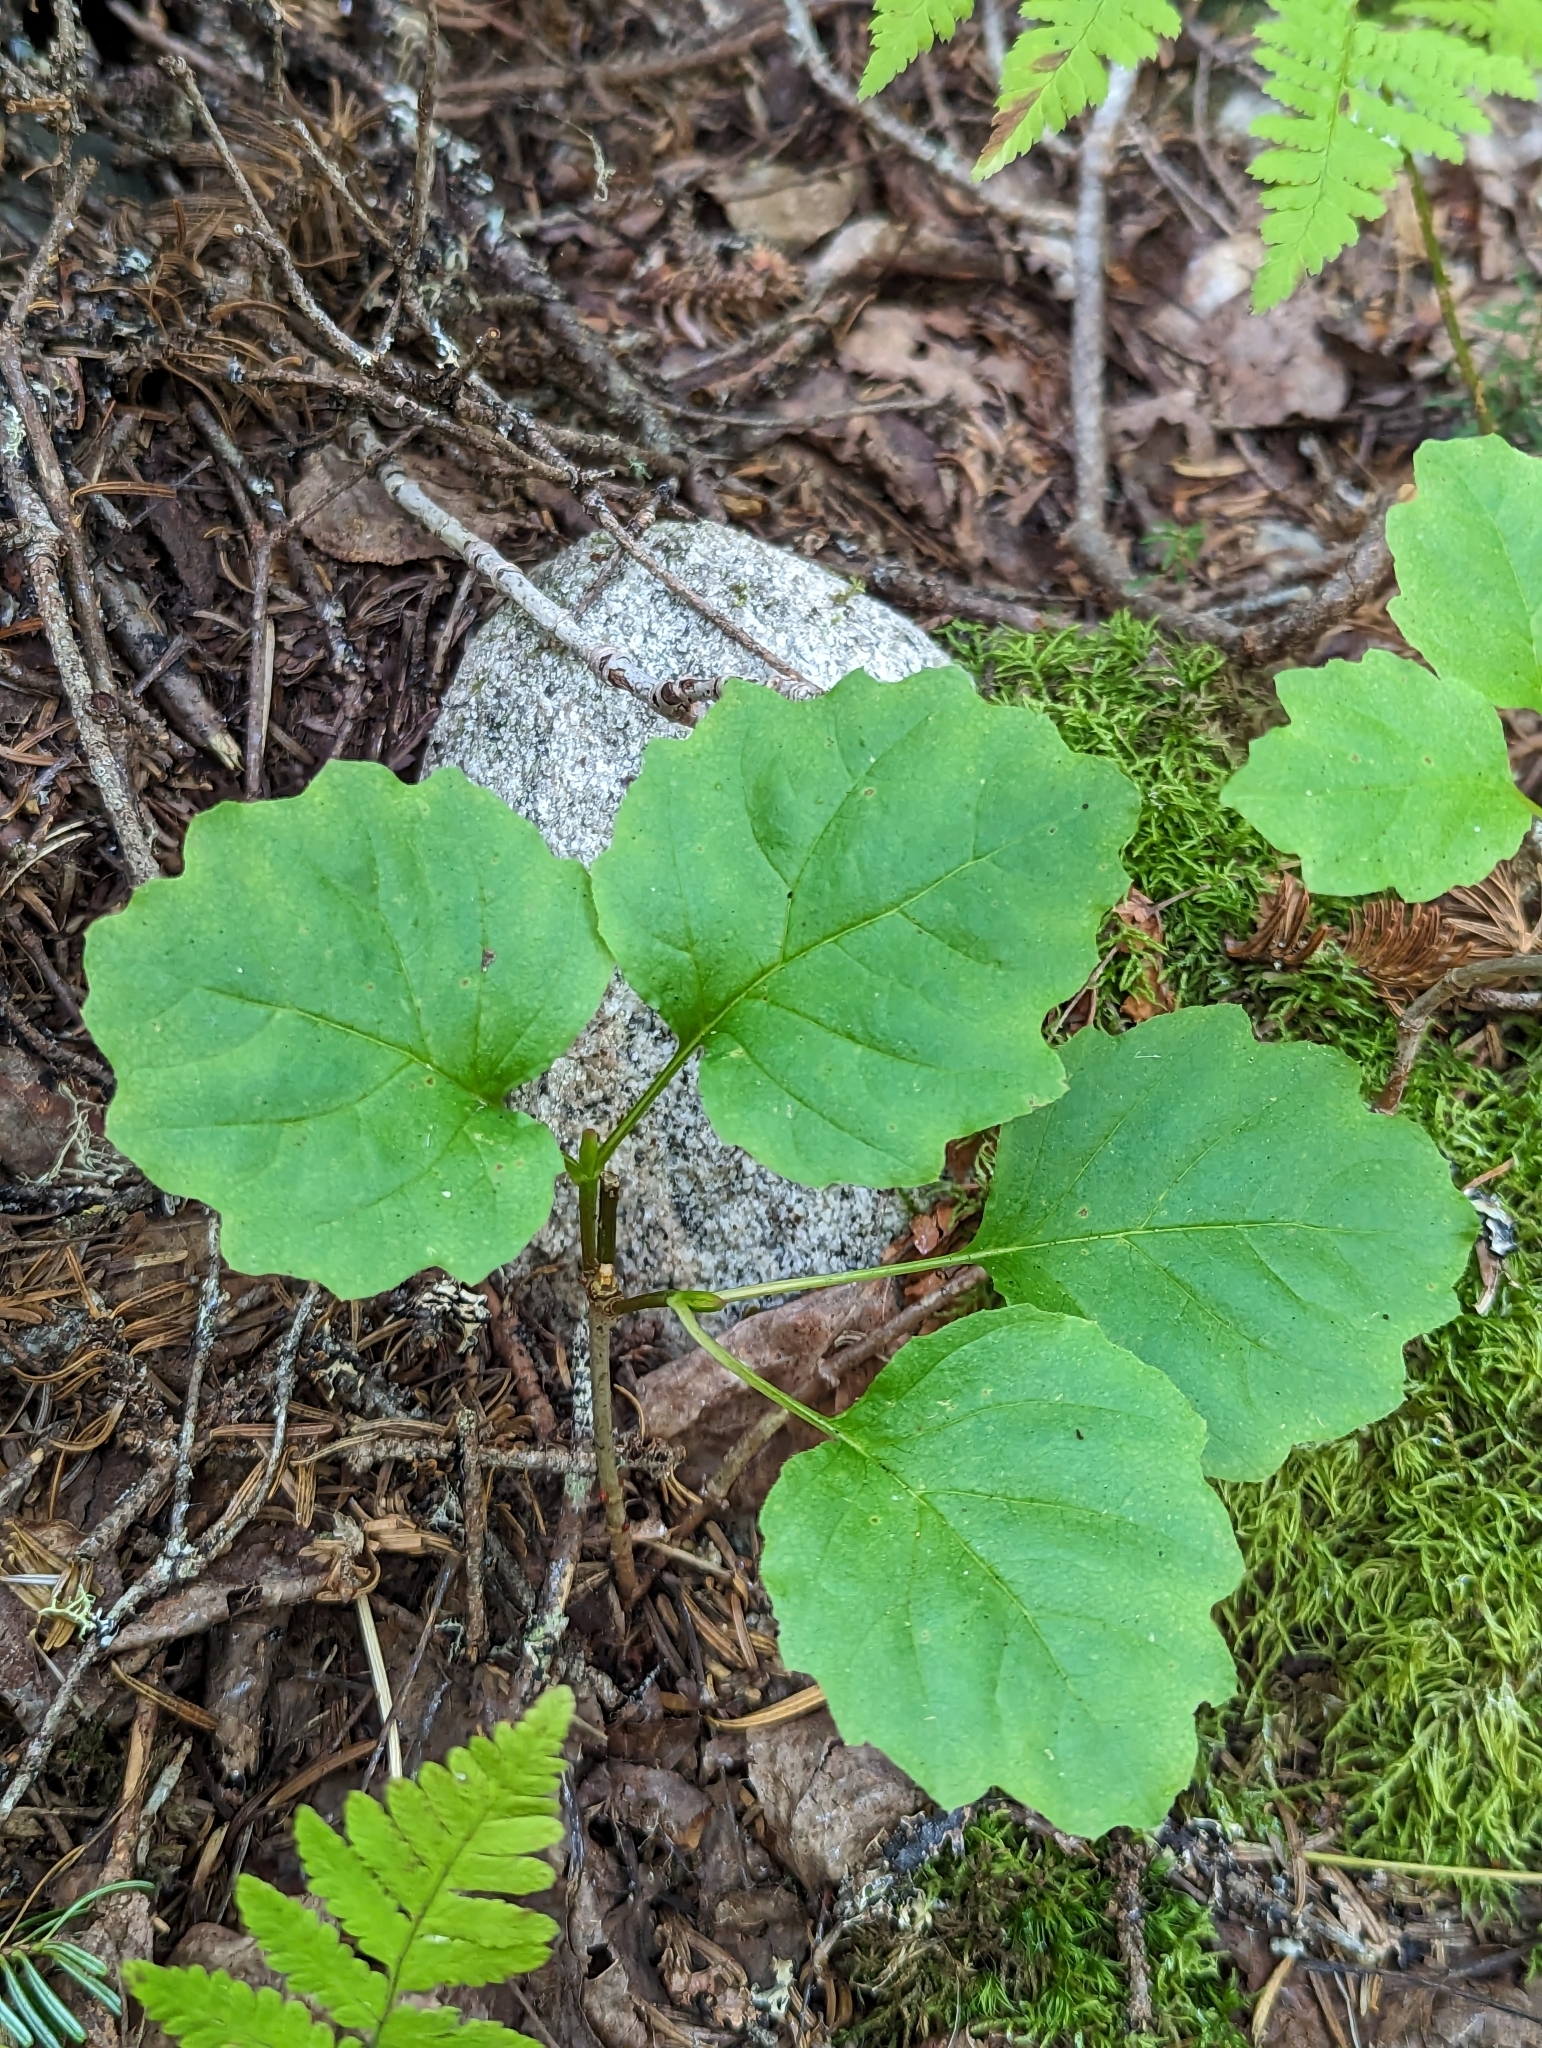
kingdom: Plantae
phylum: Tracheophyta
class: Magnoliopsida
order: Dipsacales
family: Viburnaceae
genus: Viburnum
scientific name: Viburnum edule
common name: Mooseberry
